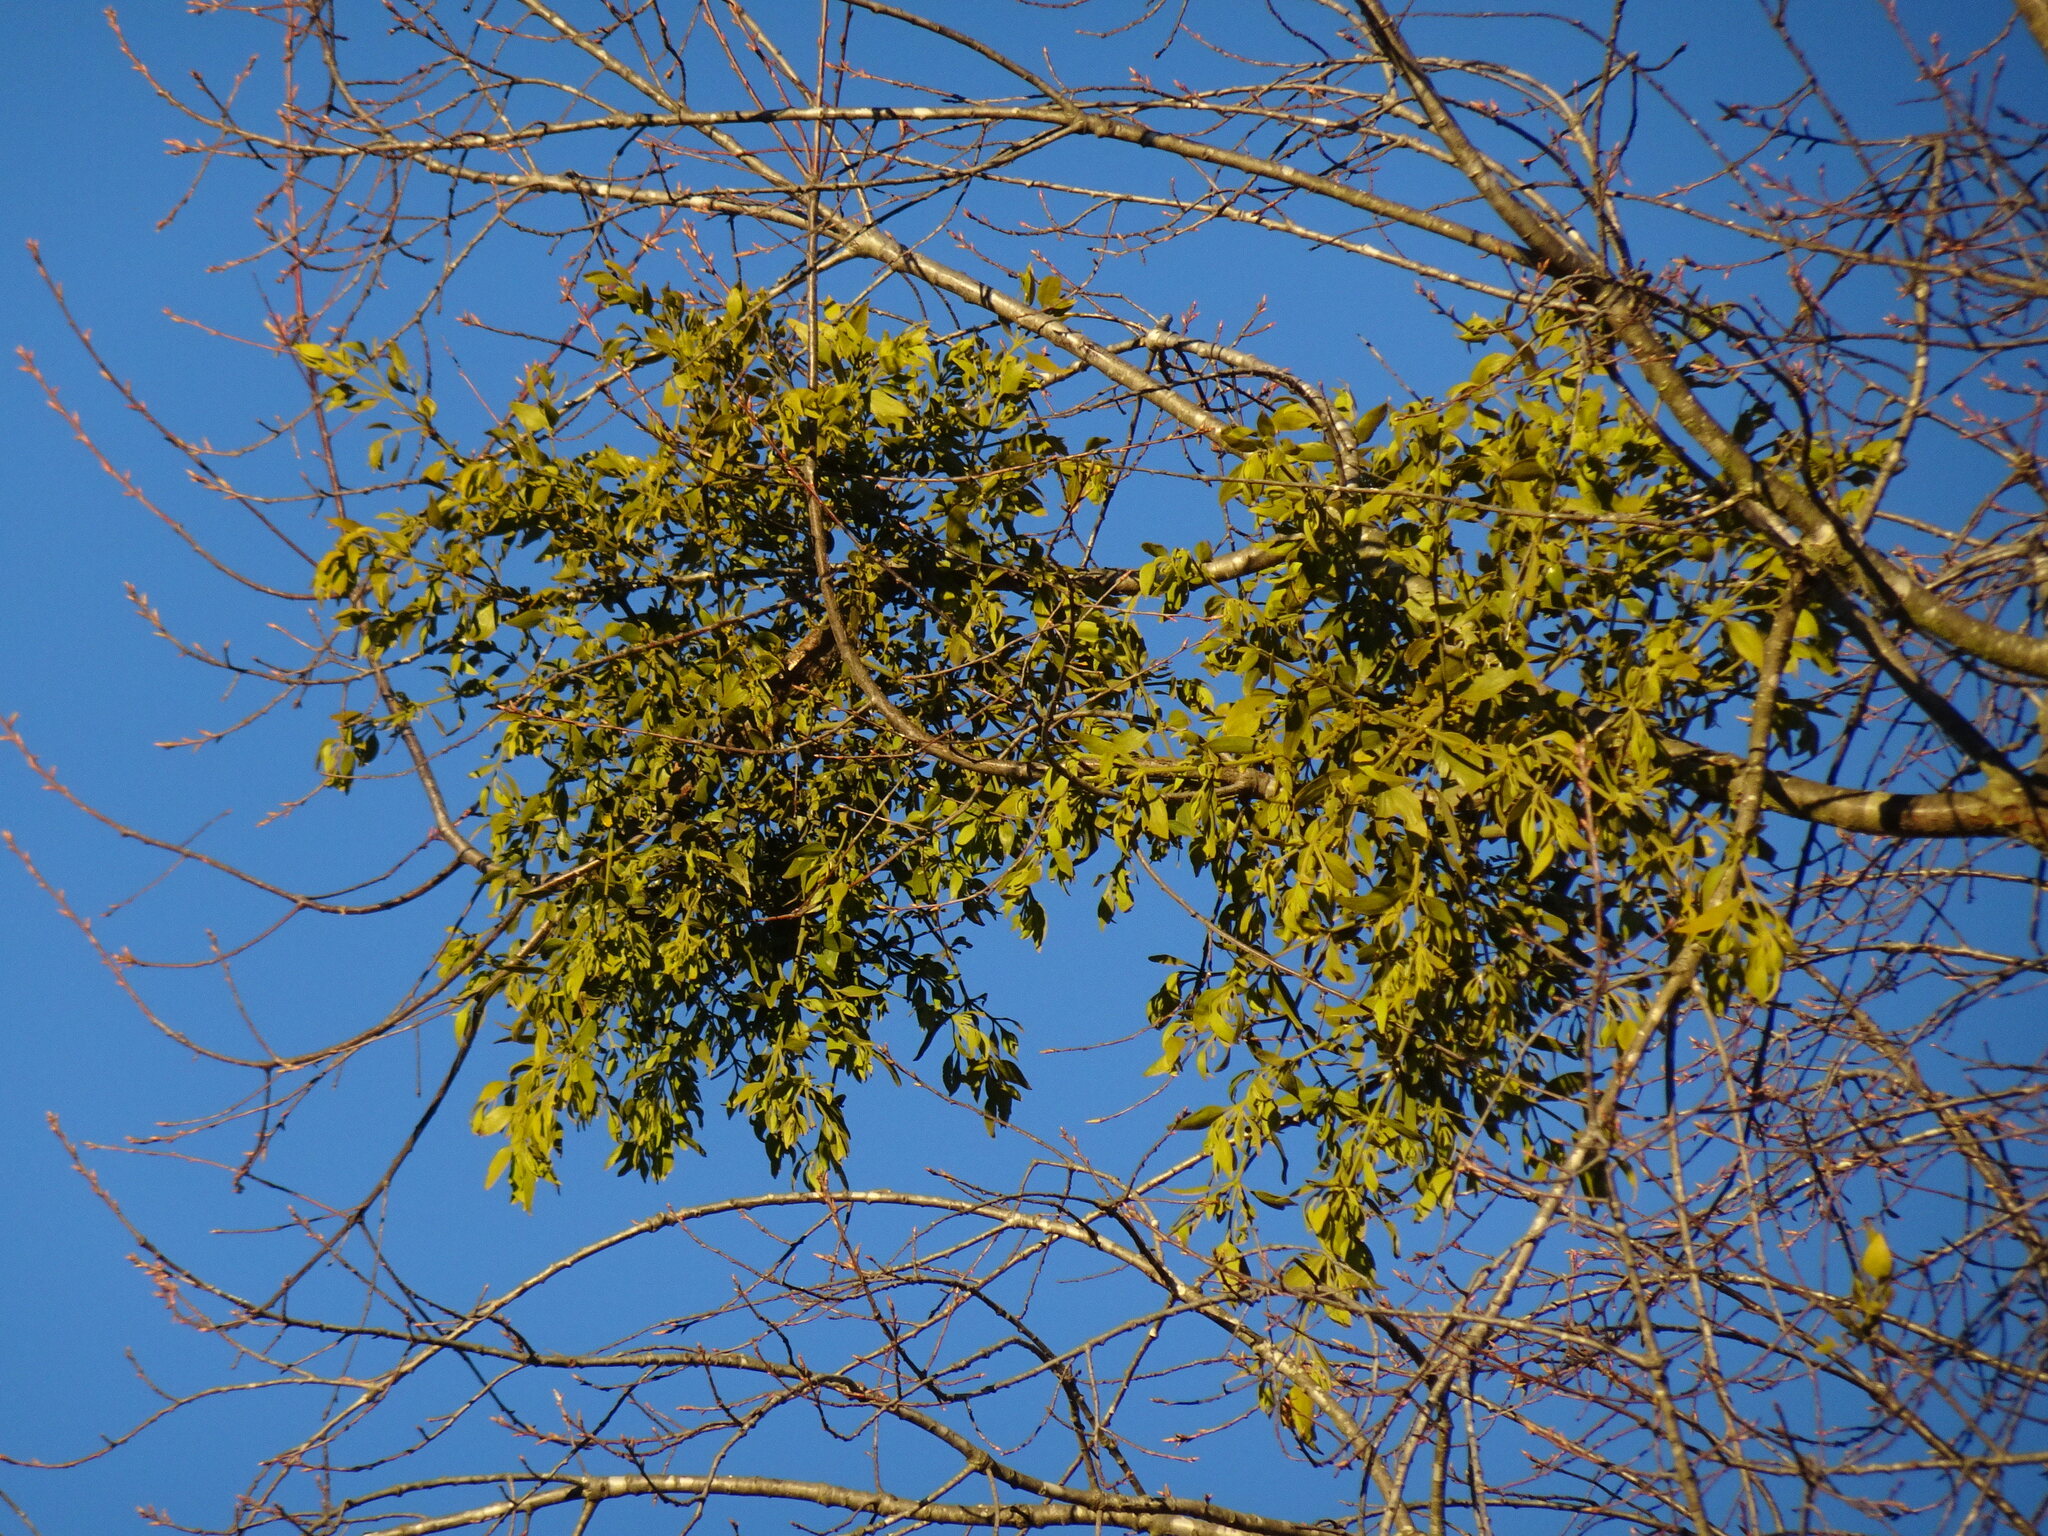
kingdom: Plantae
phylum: Tracheophyta
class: Magnoliopsida
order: Santalales
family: Viscaceae
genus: Phoradendron
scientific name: Phoradendron leucarpum
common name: Pacific mistletoe
